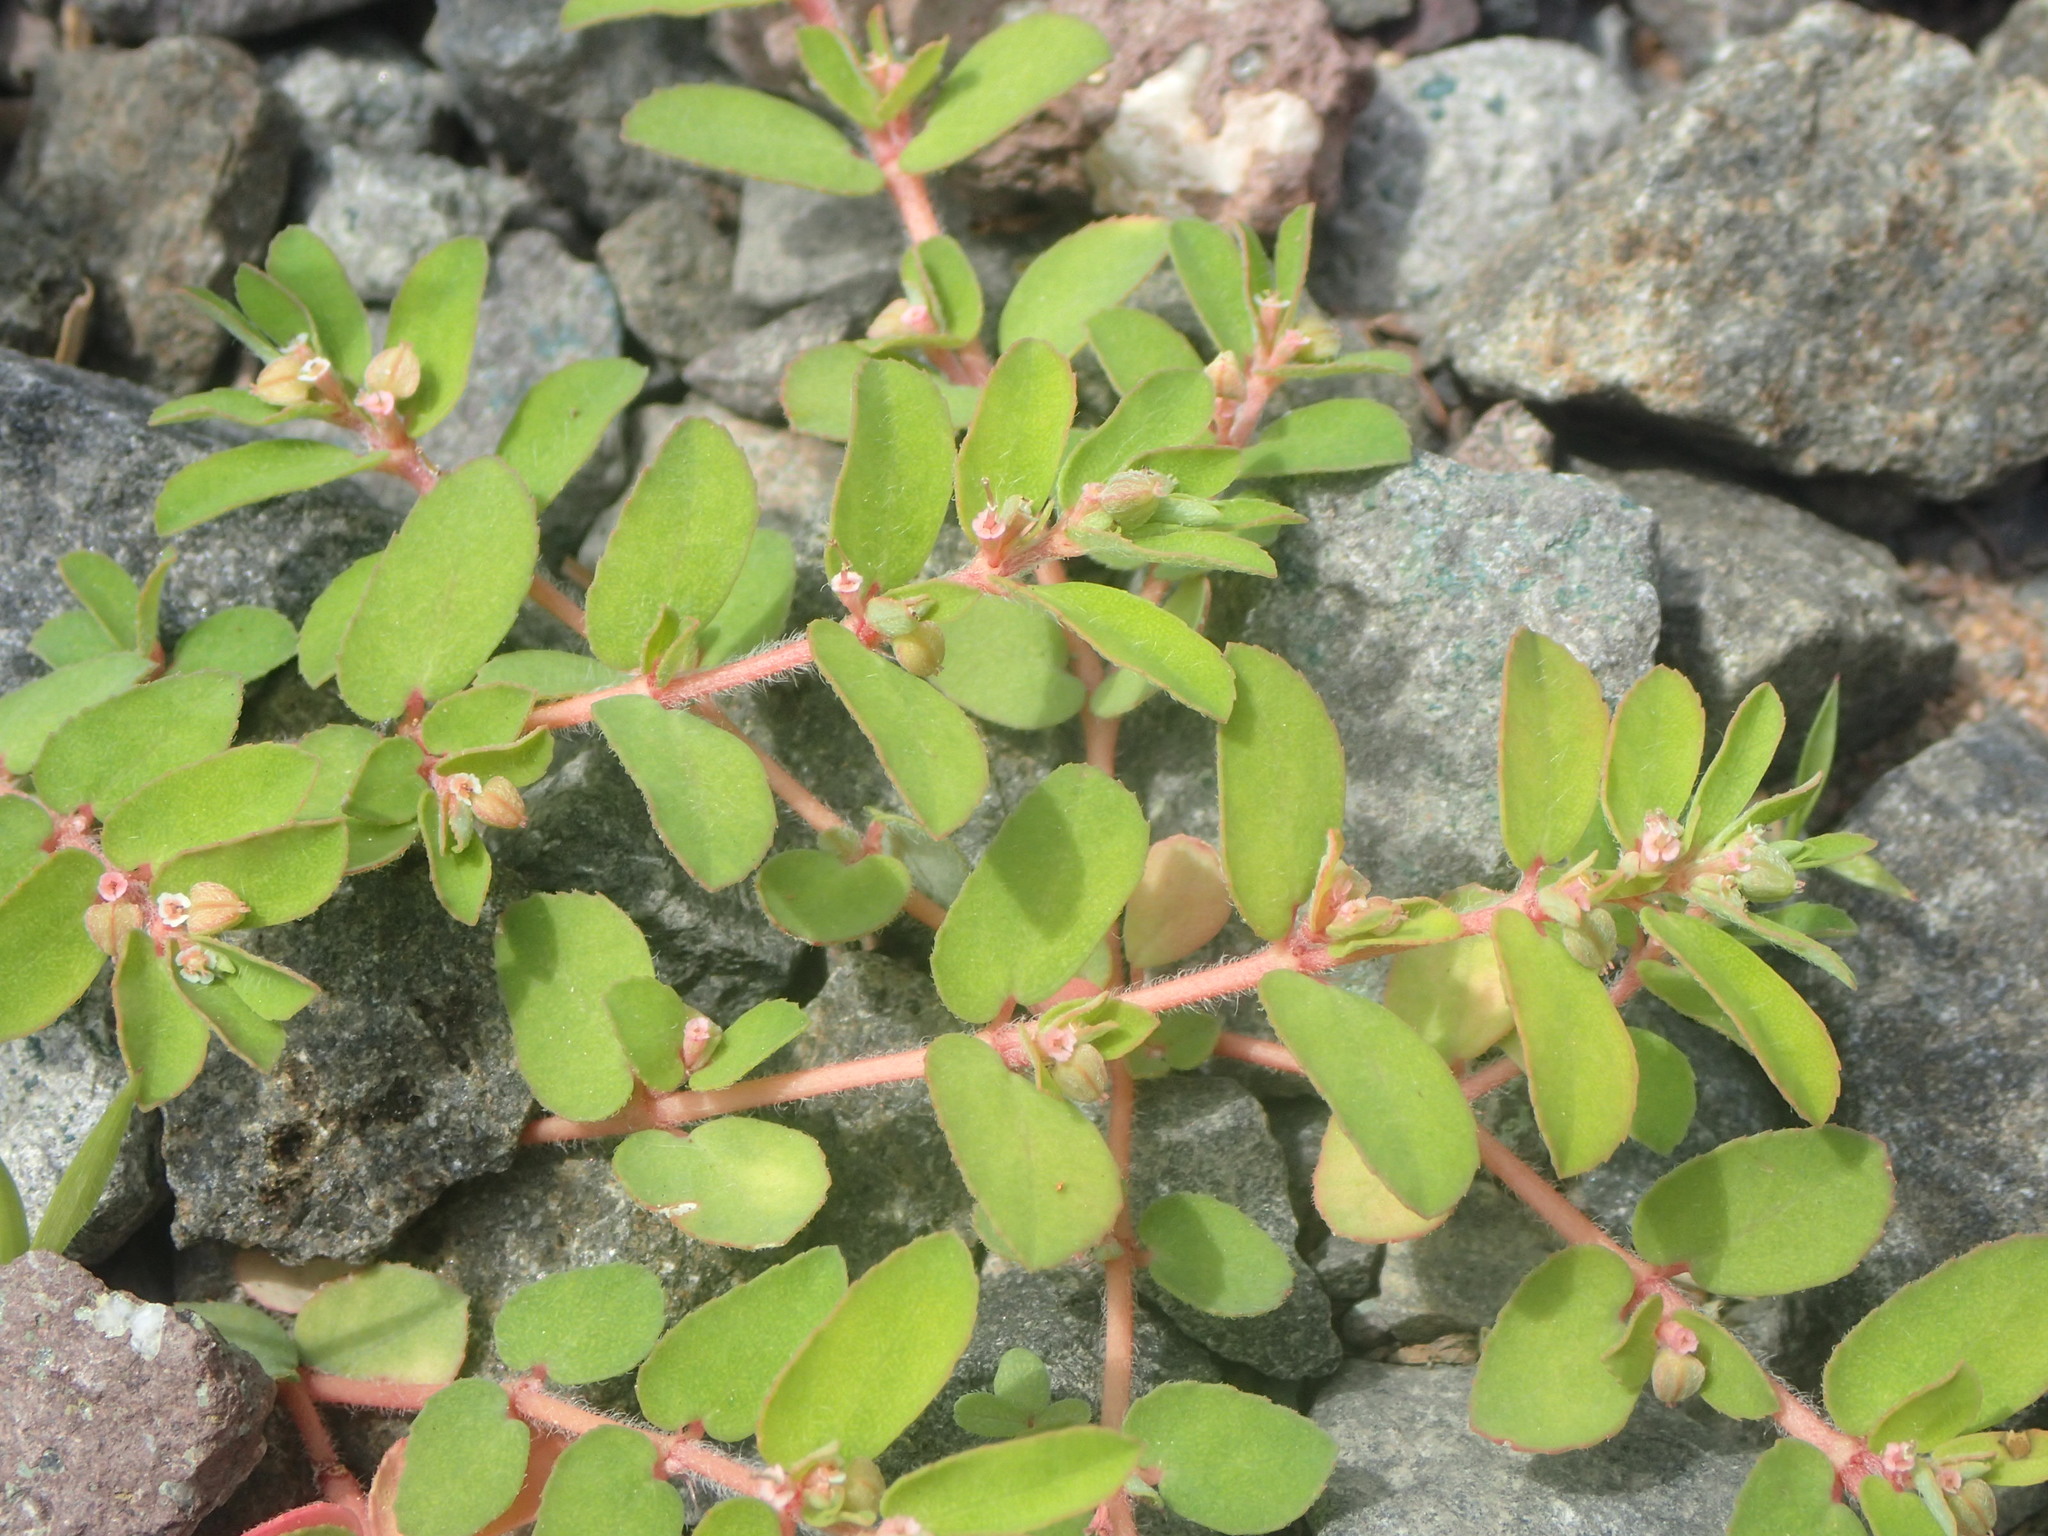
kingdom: Plantae
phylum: Tracheophyta
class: Magnoliopsida
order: Malpighiales
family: Euphorbiaceae
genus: Euphorbia
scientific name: Euphorbia maculata
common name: Spotted spurge
